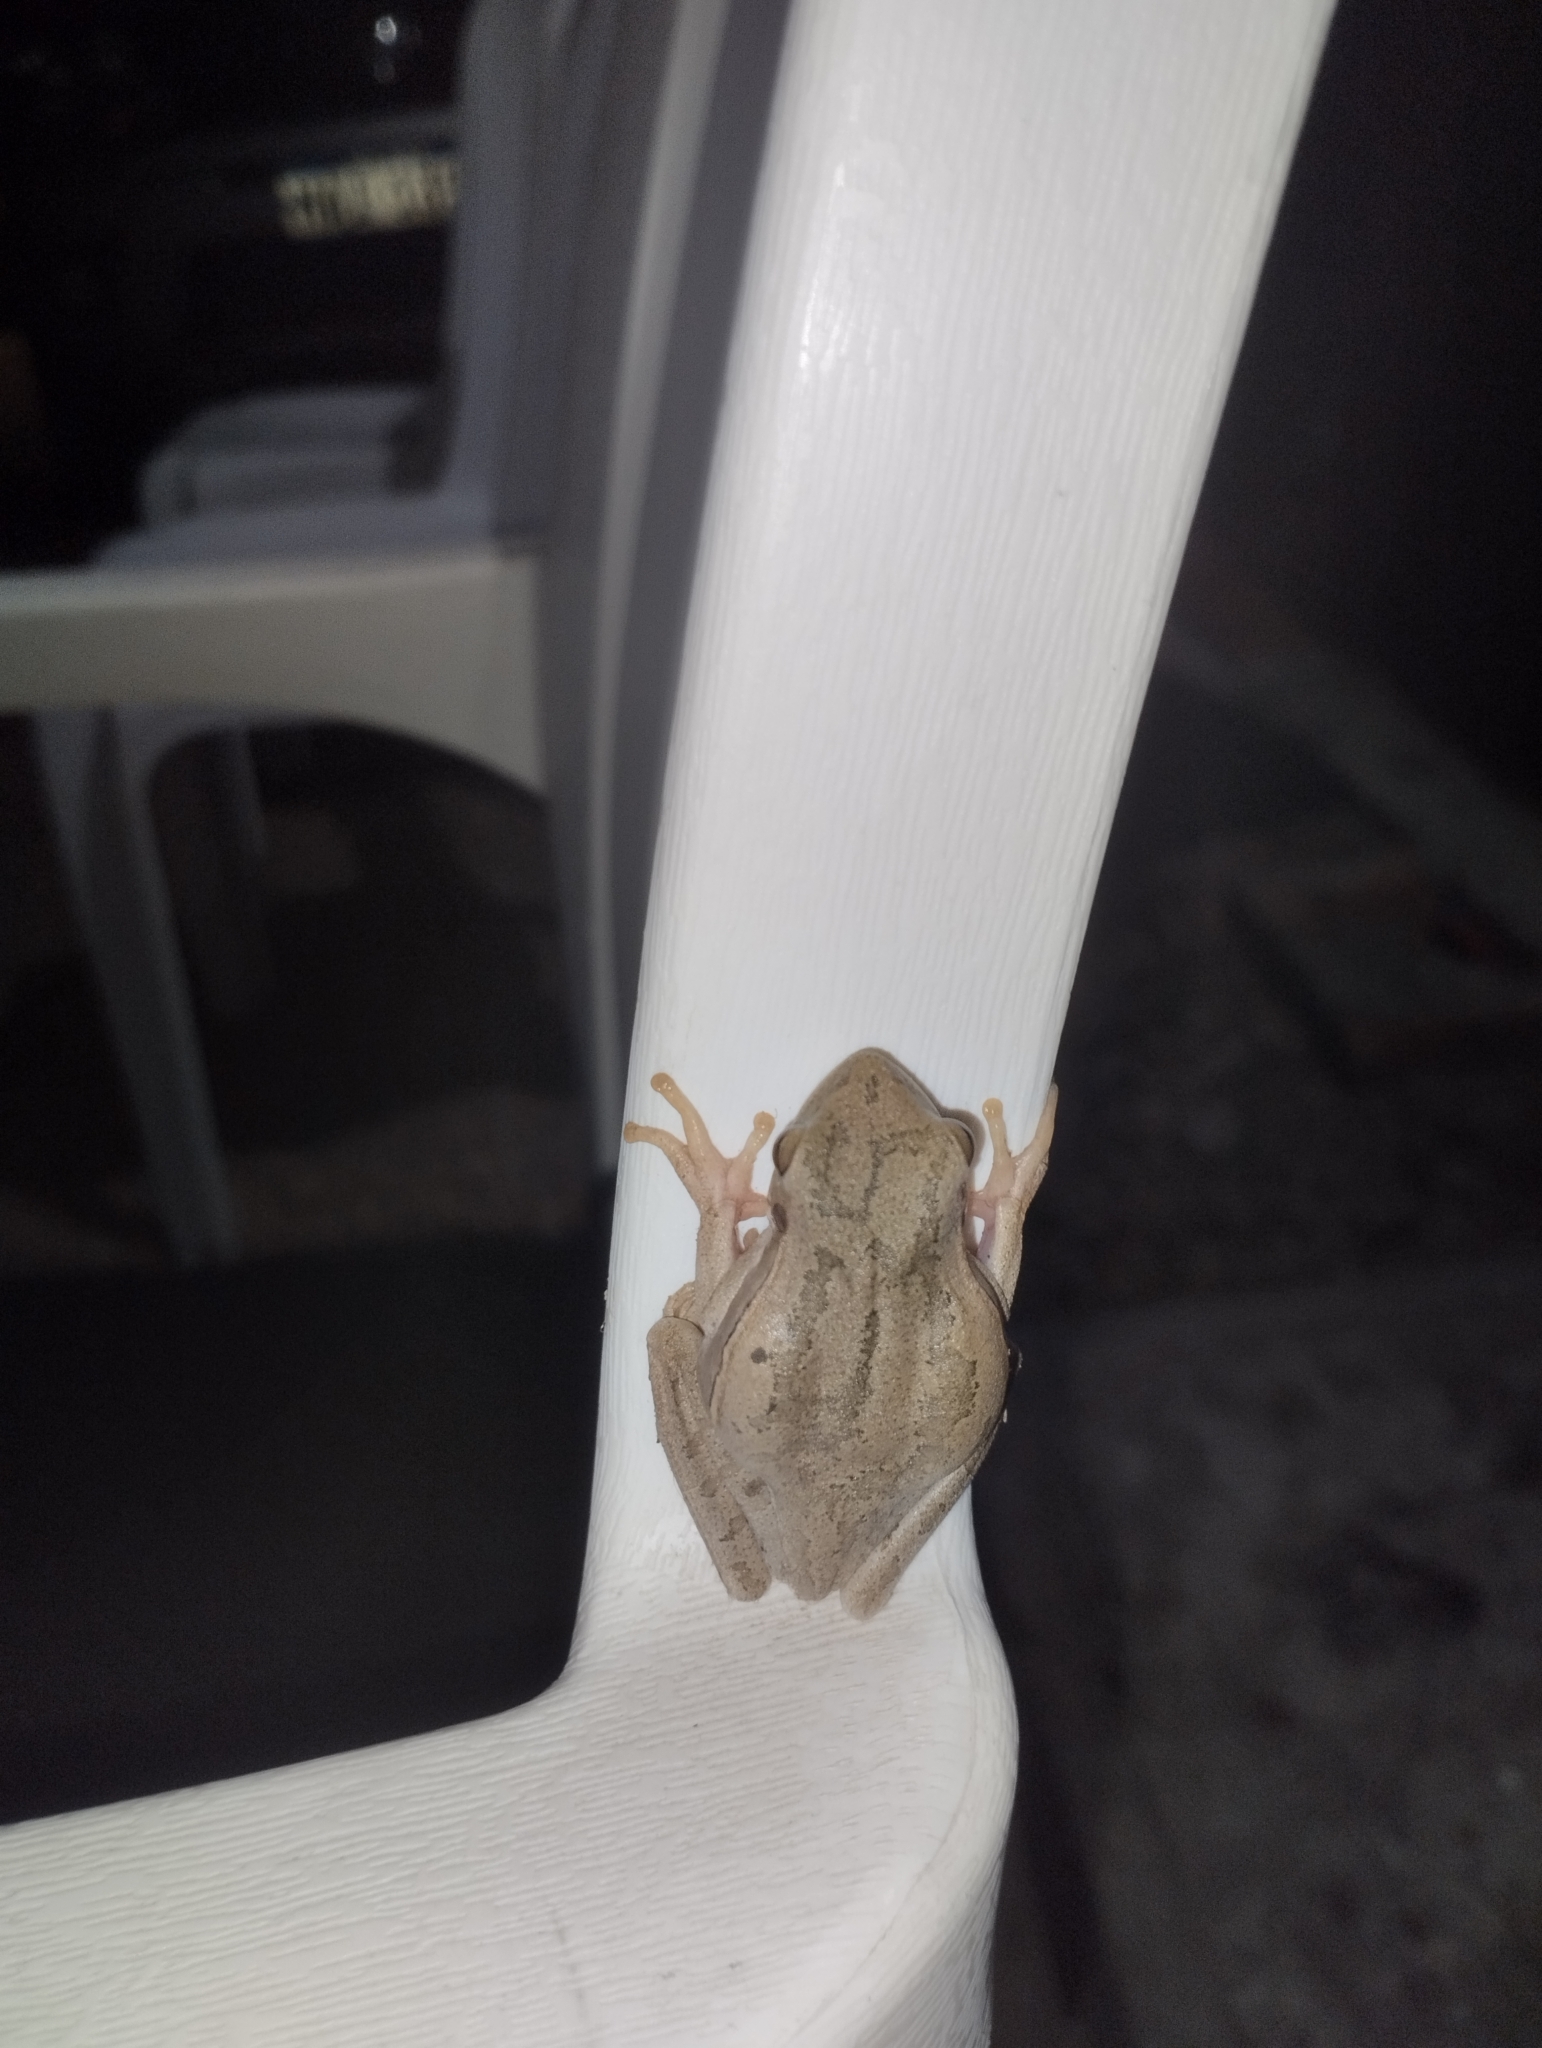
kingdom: Animalia
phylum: Chordata
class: Amphibia
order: Anura
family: Hylidae
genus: Boana
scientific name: Boana pulchella
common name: Montevideo treefrog
